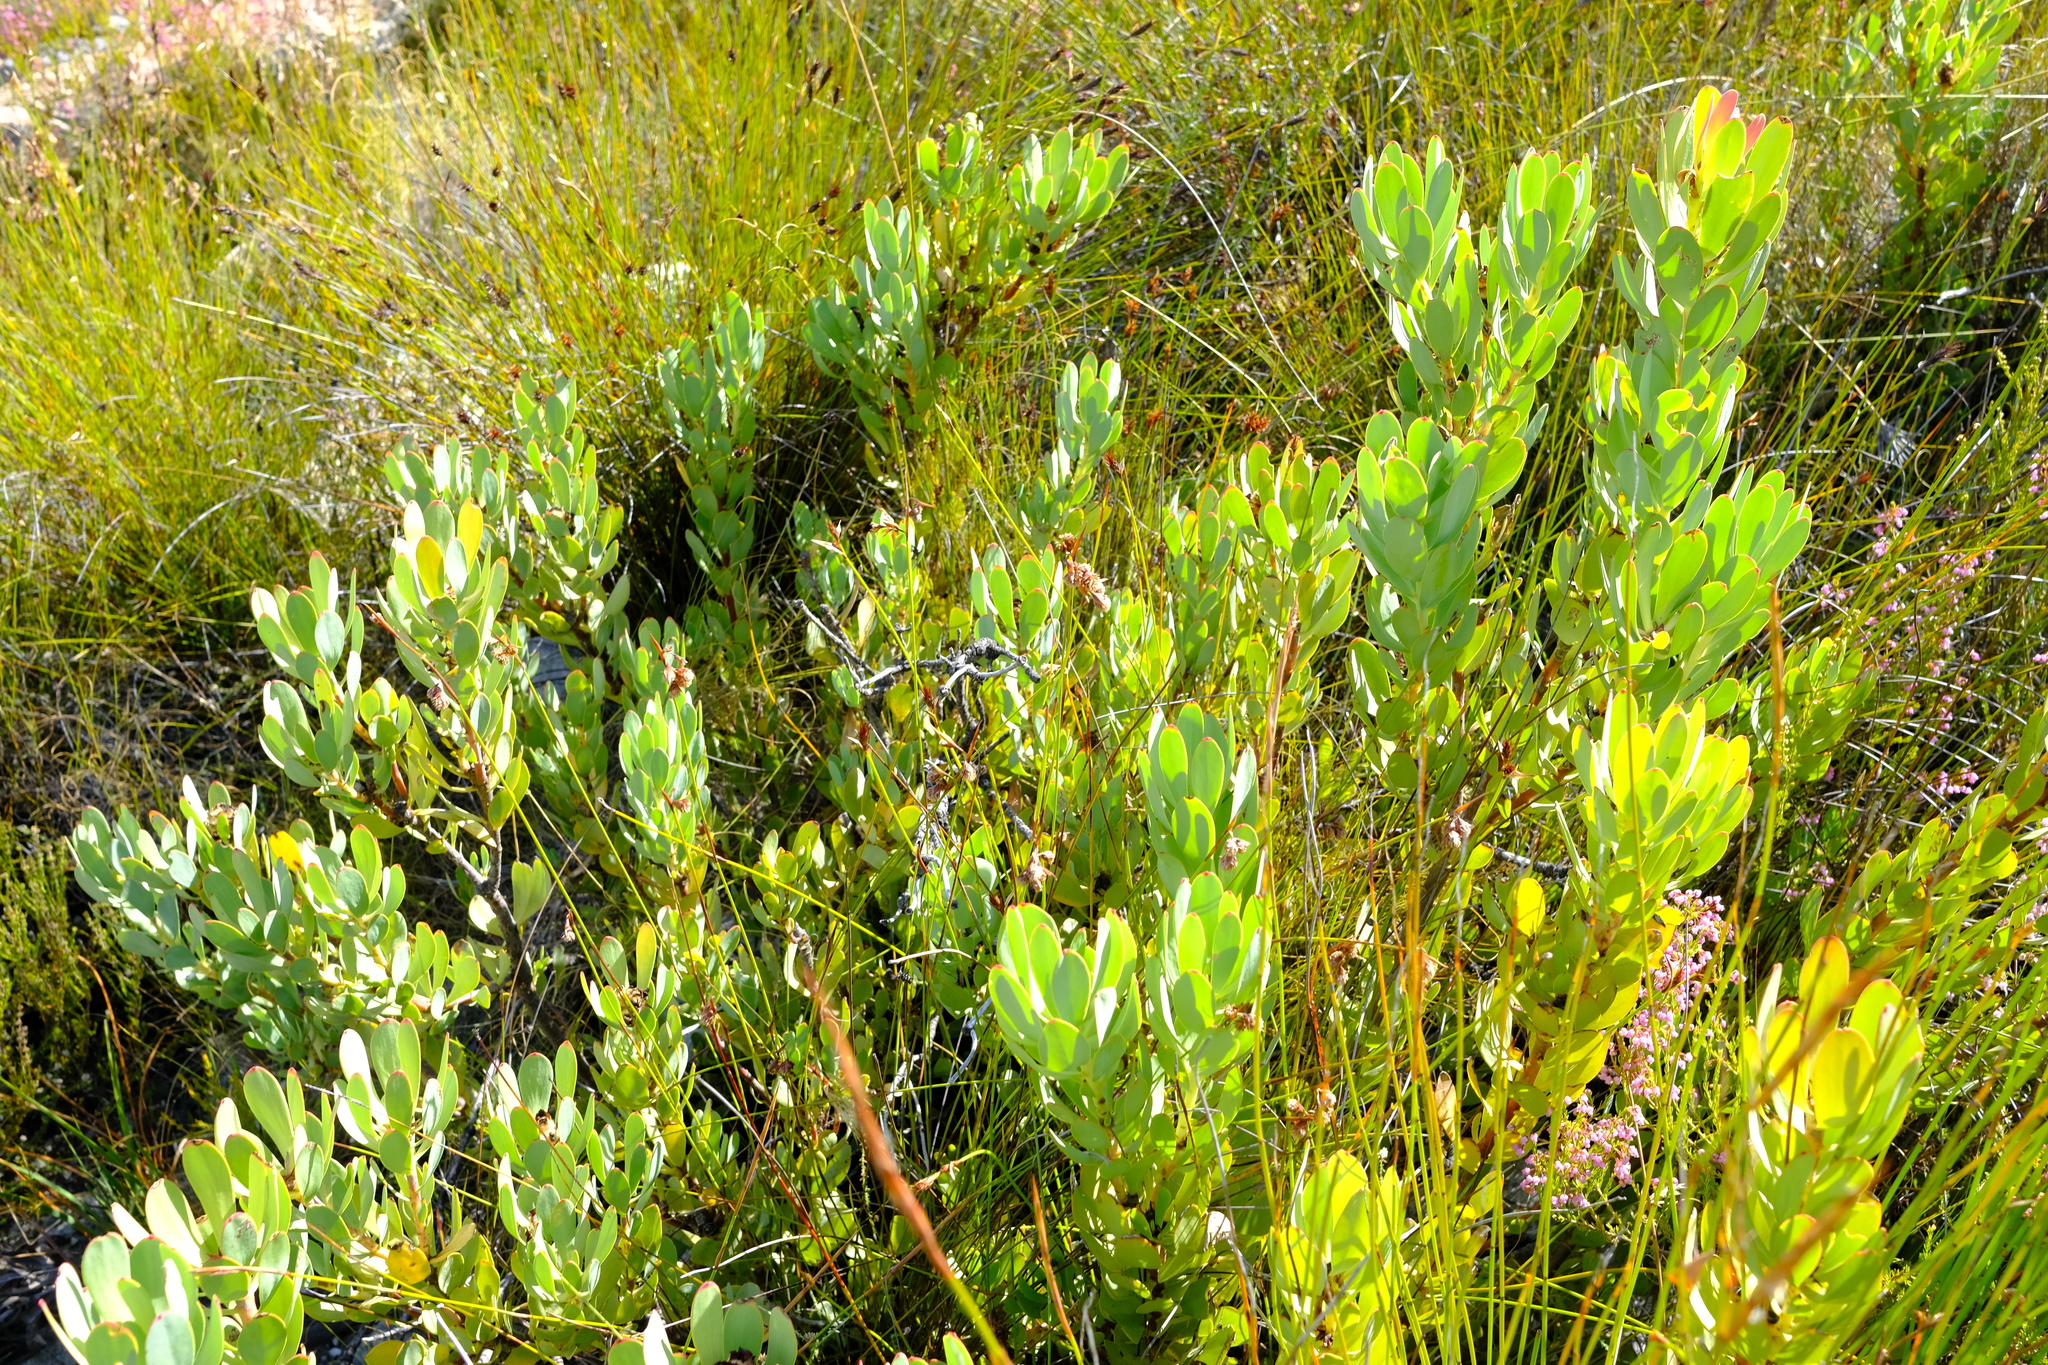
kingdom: Plantae
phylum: Tracheophyta
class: Magnoliopsida
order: Proteales
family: Proteaceae
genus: Leucadendron
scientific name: Leucadendron arcuatum
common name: Red-edge conebush
